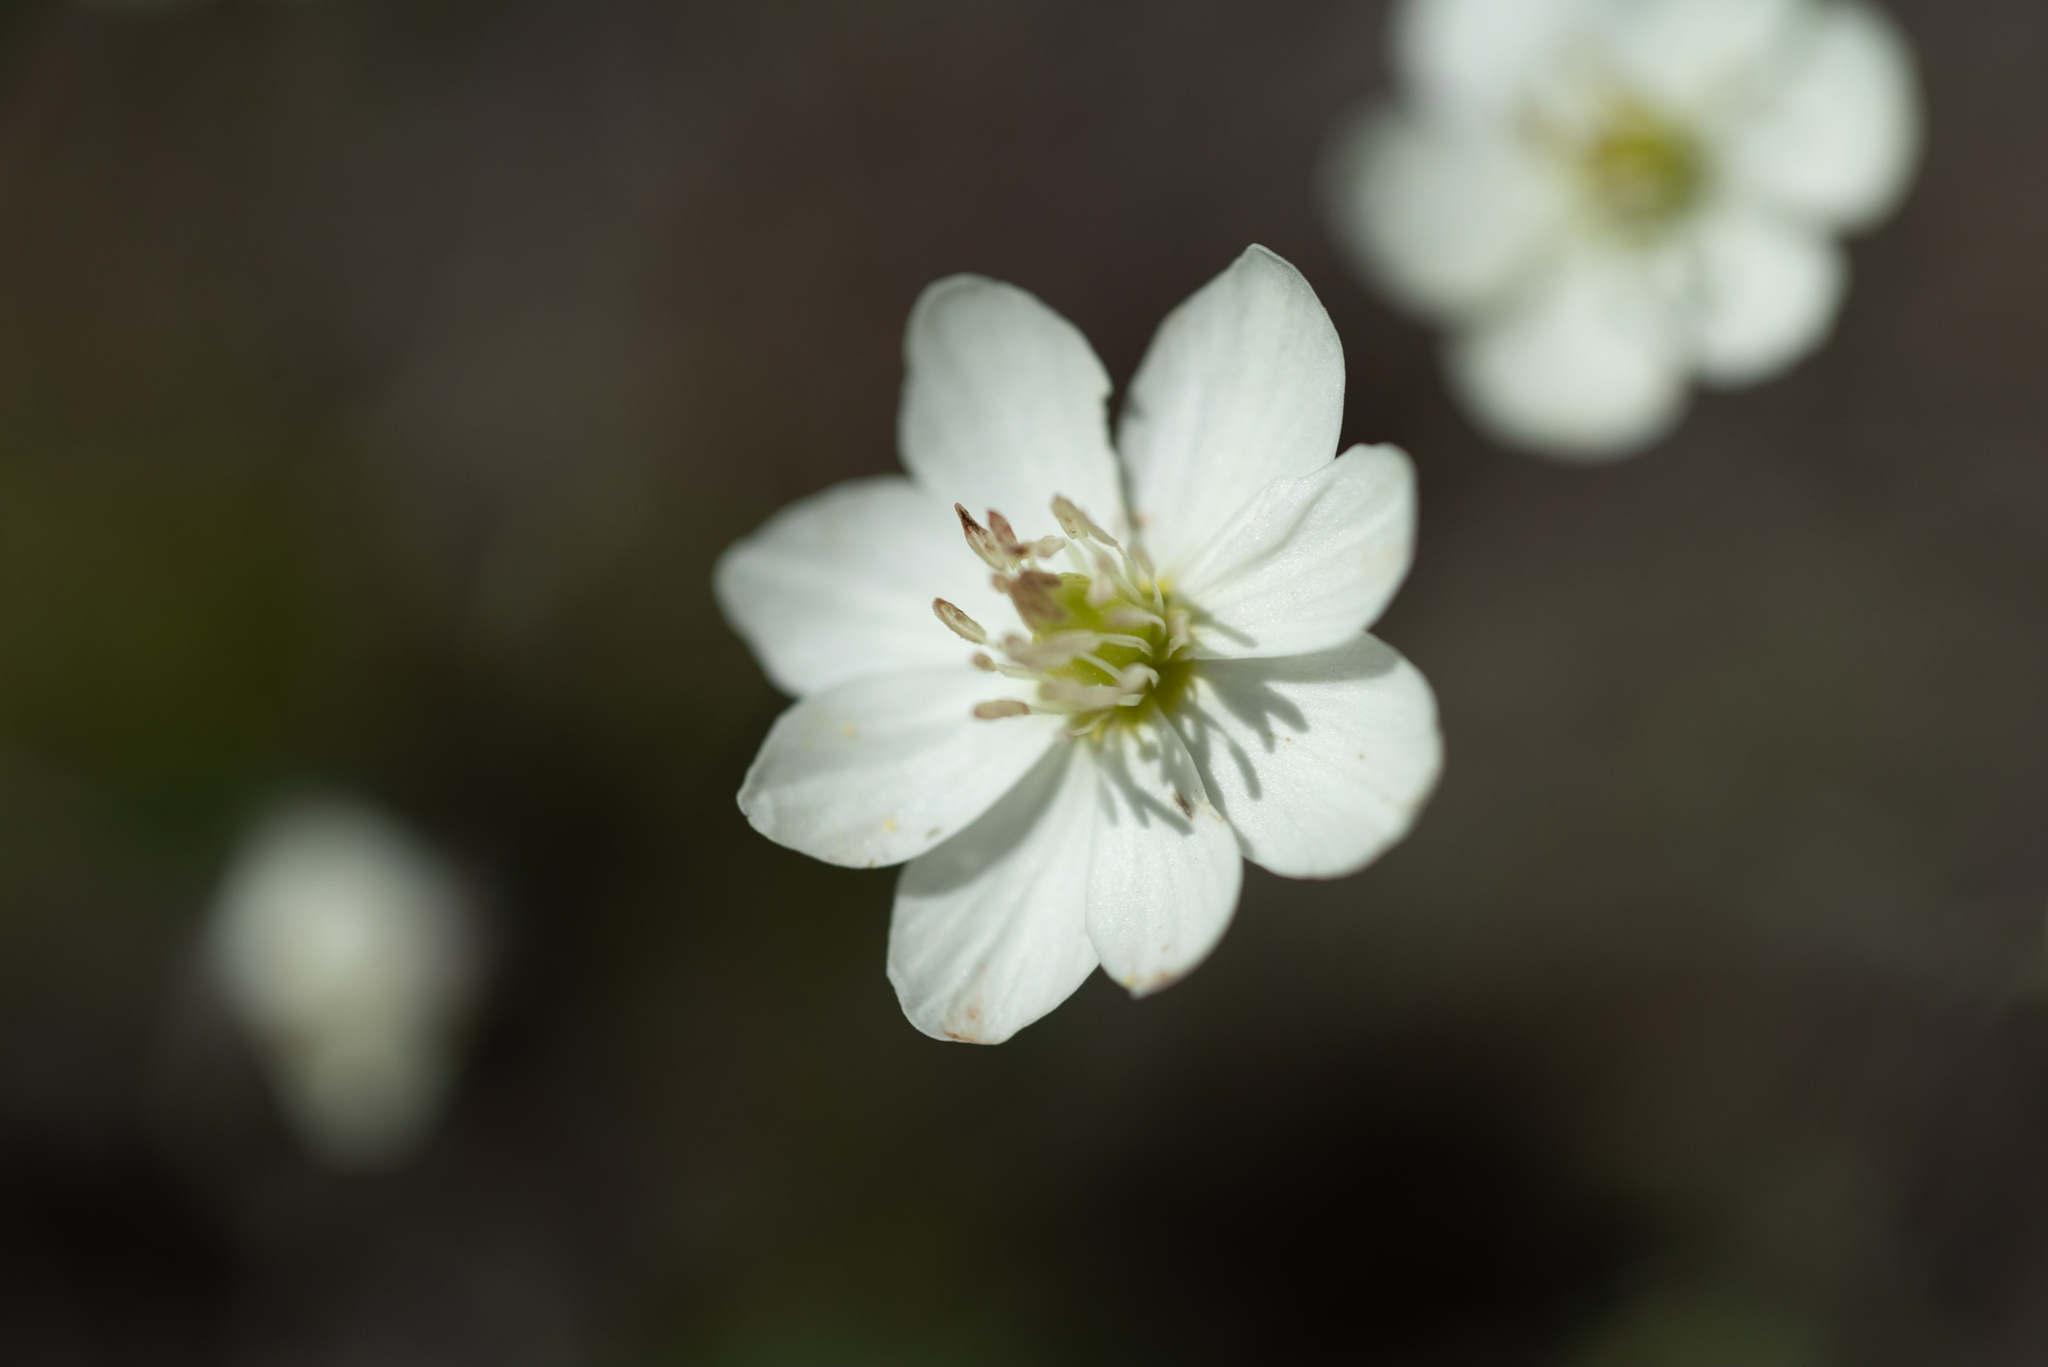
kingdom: Plantae
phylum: Tracheophyta
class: Magnoliopsida
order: Ranunculales
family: Papaveraceae
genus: Platystemon
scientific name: Platystemon californicus
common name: Cream-cups
